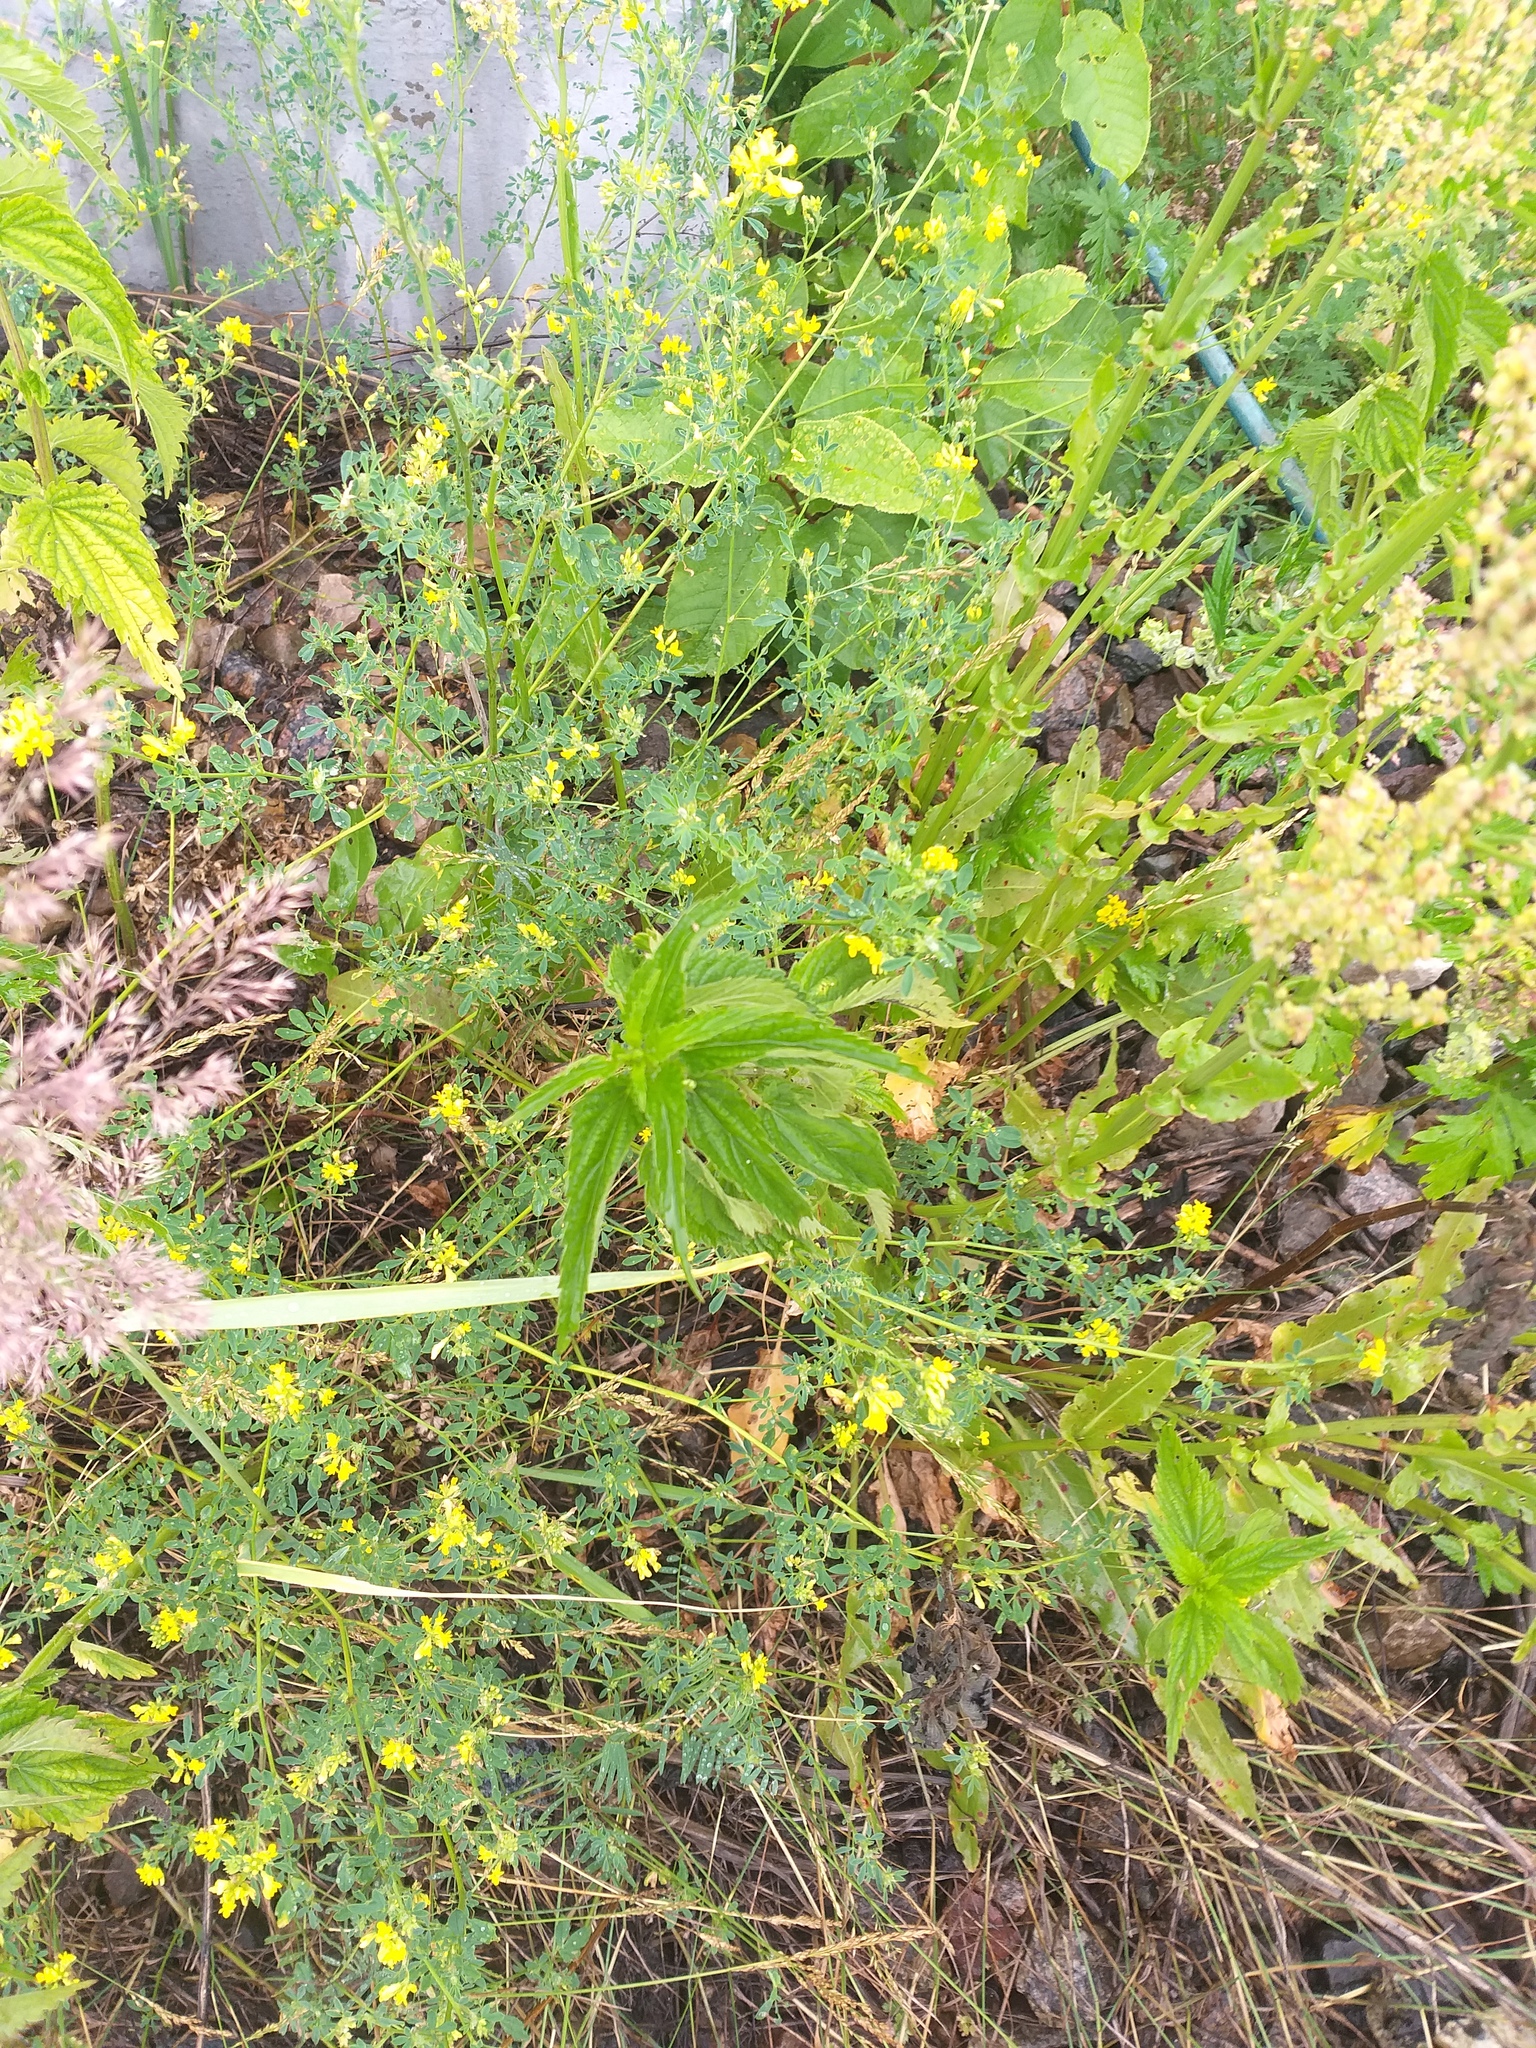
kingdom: Plantae
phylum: Tracheophyta
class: Magnoliopsida
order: Rosales
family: Urticaceae
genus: Urtica
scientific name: Urtica dioica
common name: Common nettle
